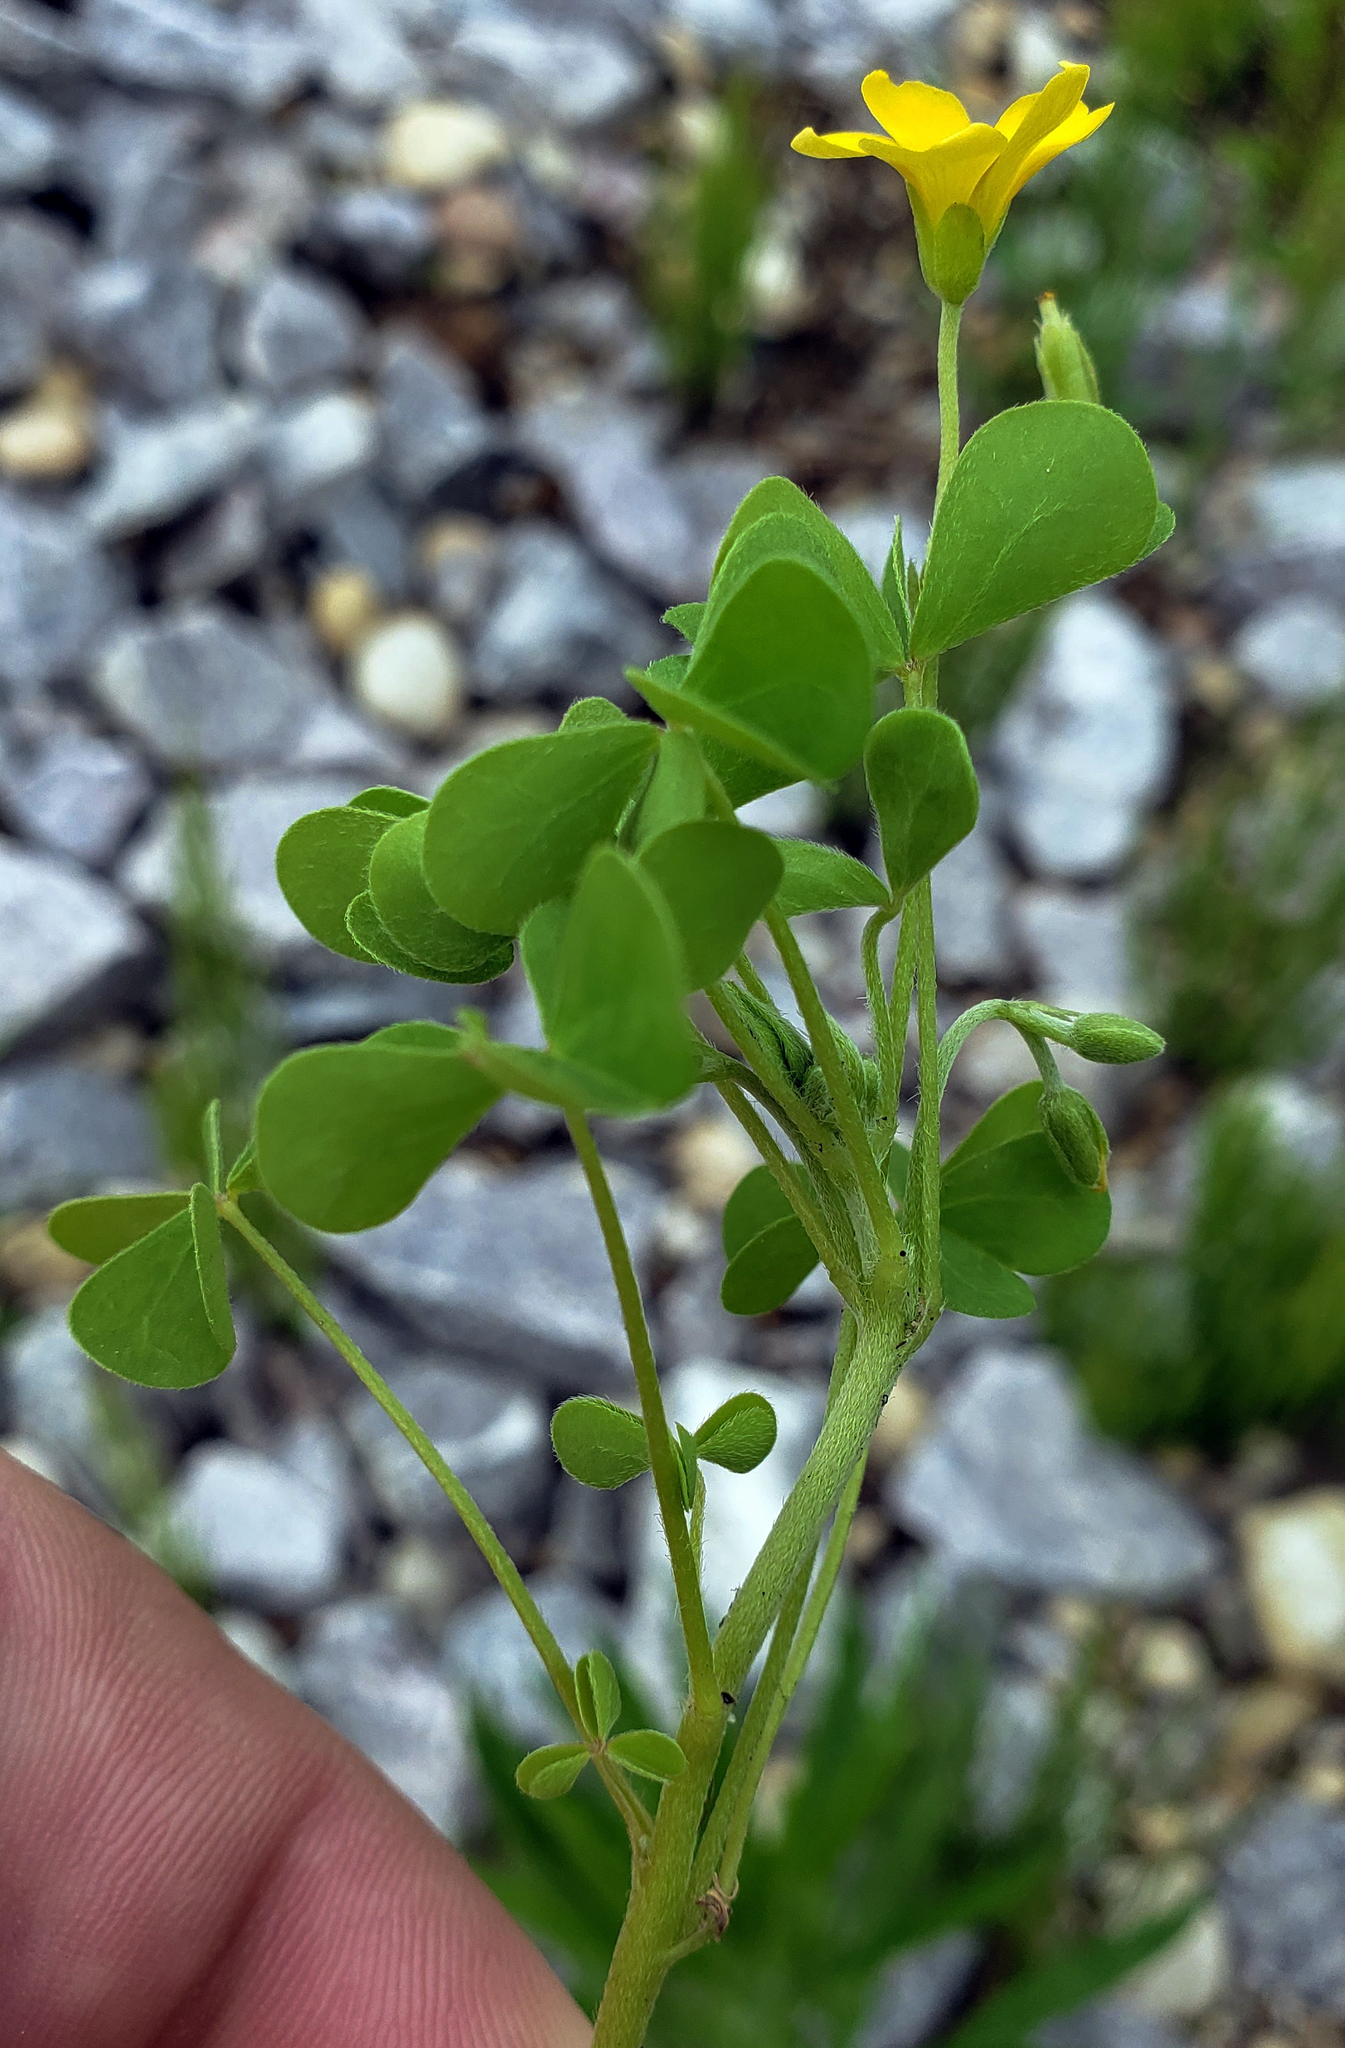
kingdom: Plantae
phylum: Tracheophyta
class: Magnoliopsida
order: Oxalidales
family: Oxalidaceae
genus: Oxalis
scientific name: Oxalis dillenii
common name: Sussex yellow-sorrel
